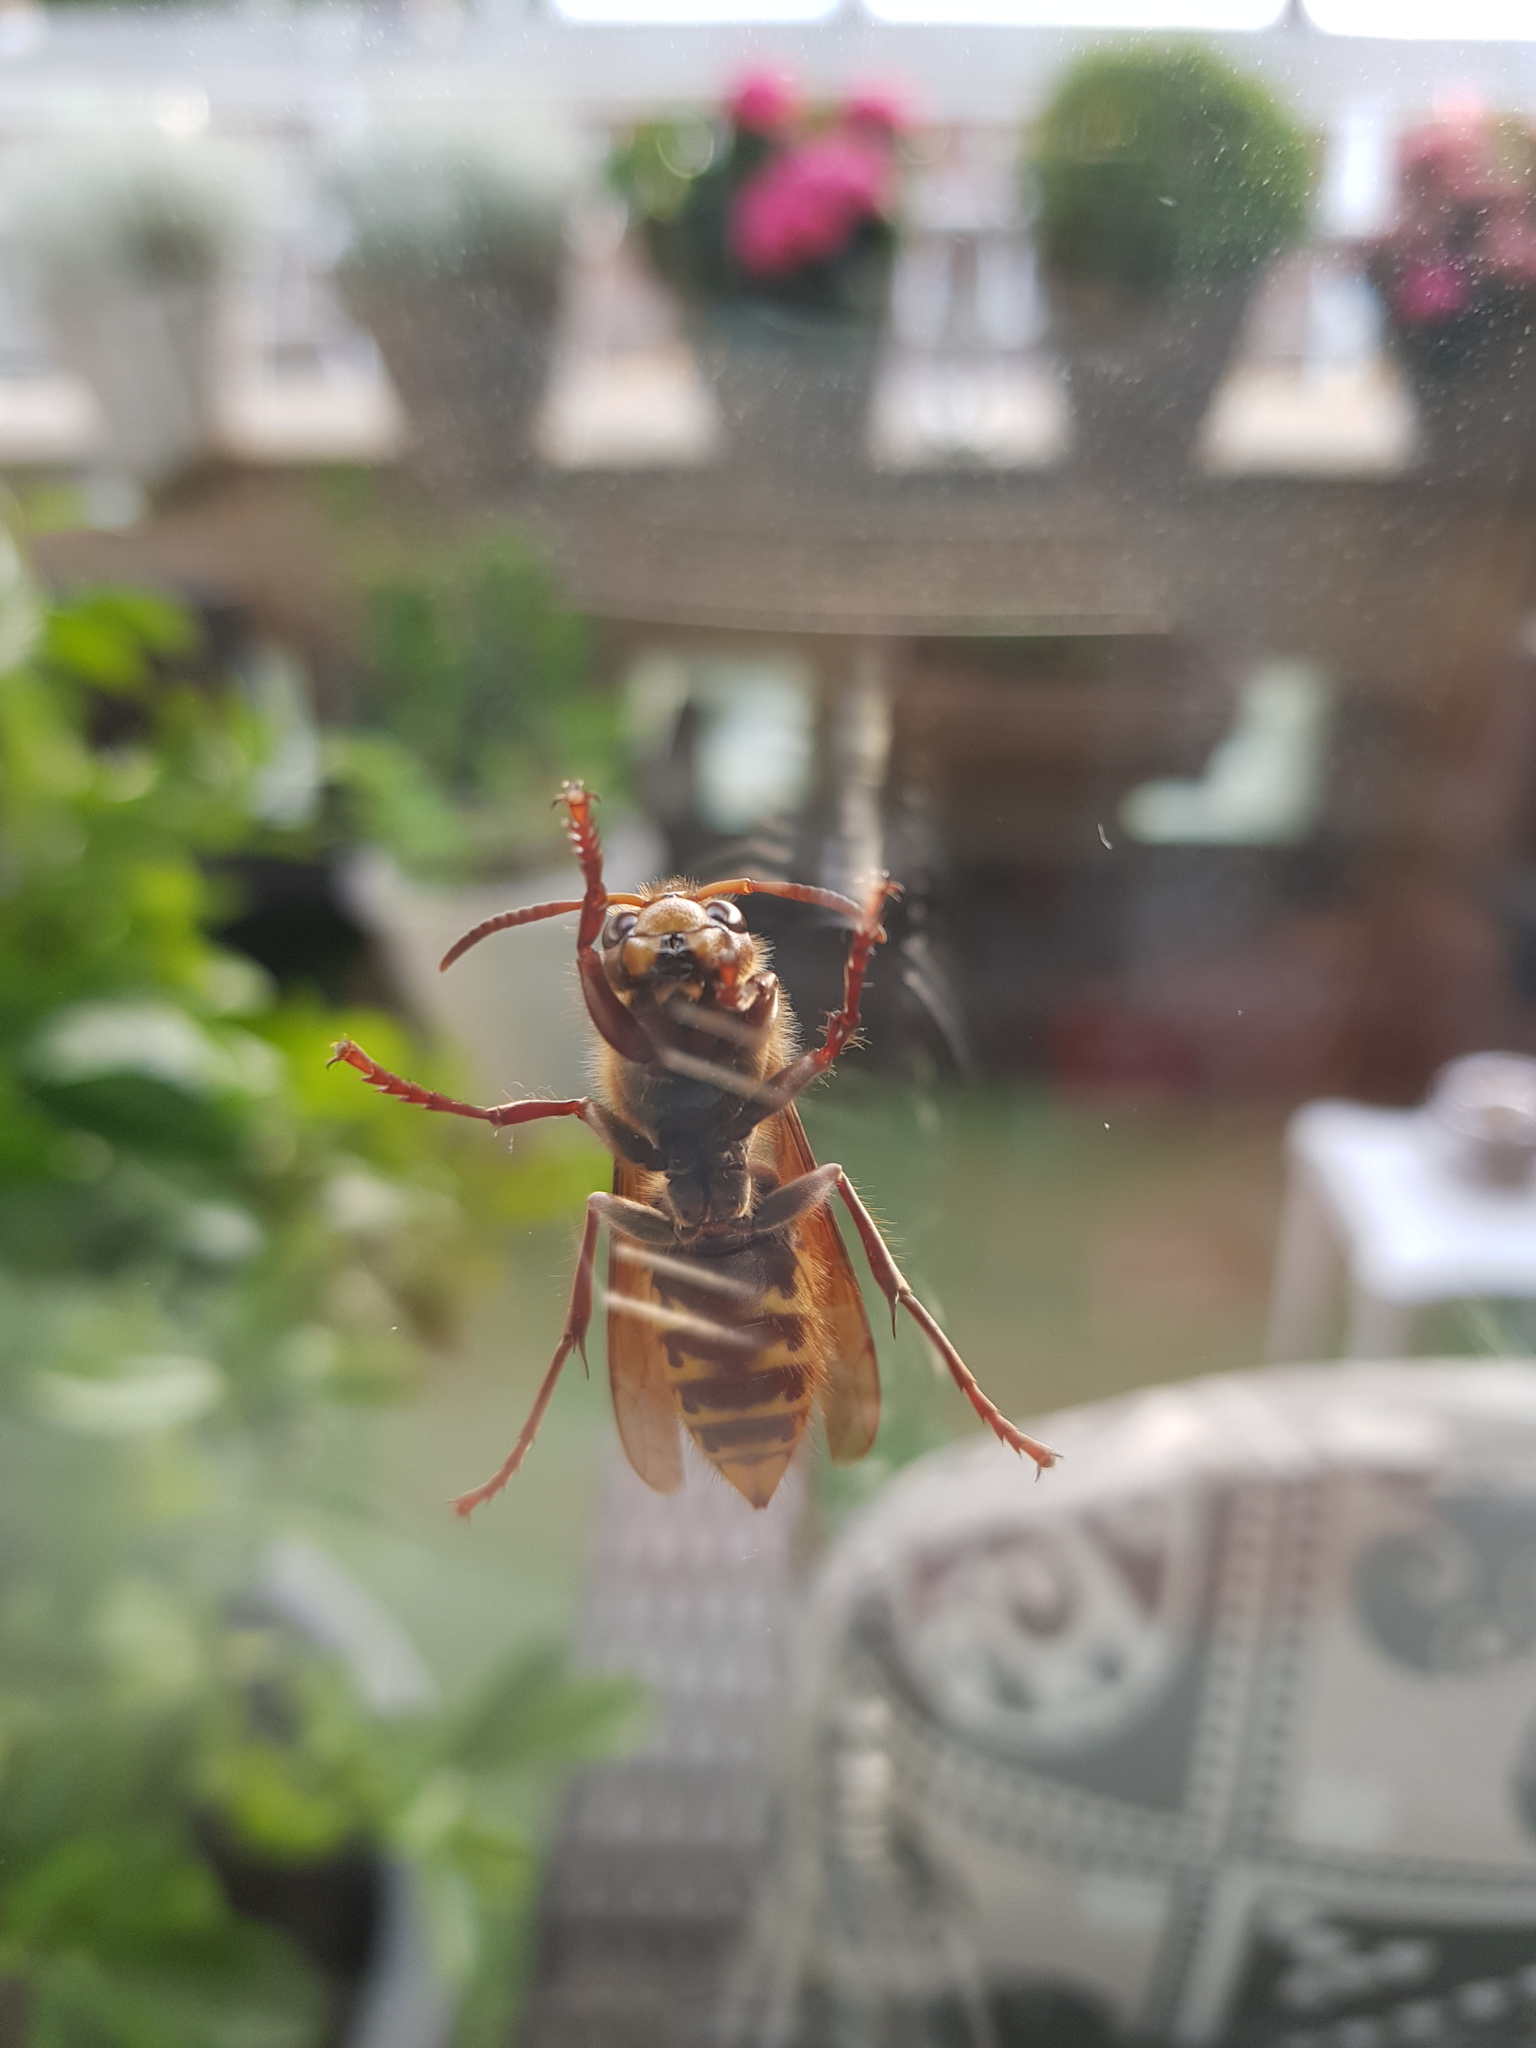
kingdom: Animalia
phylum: Arthropoda
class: Insecta
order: Hymenoptera
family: Vespidae
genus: Vespa
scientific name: Vespa crabro
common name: Hornet
